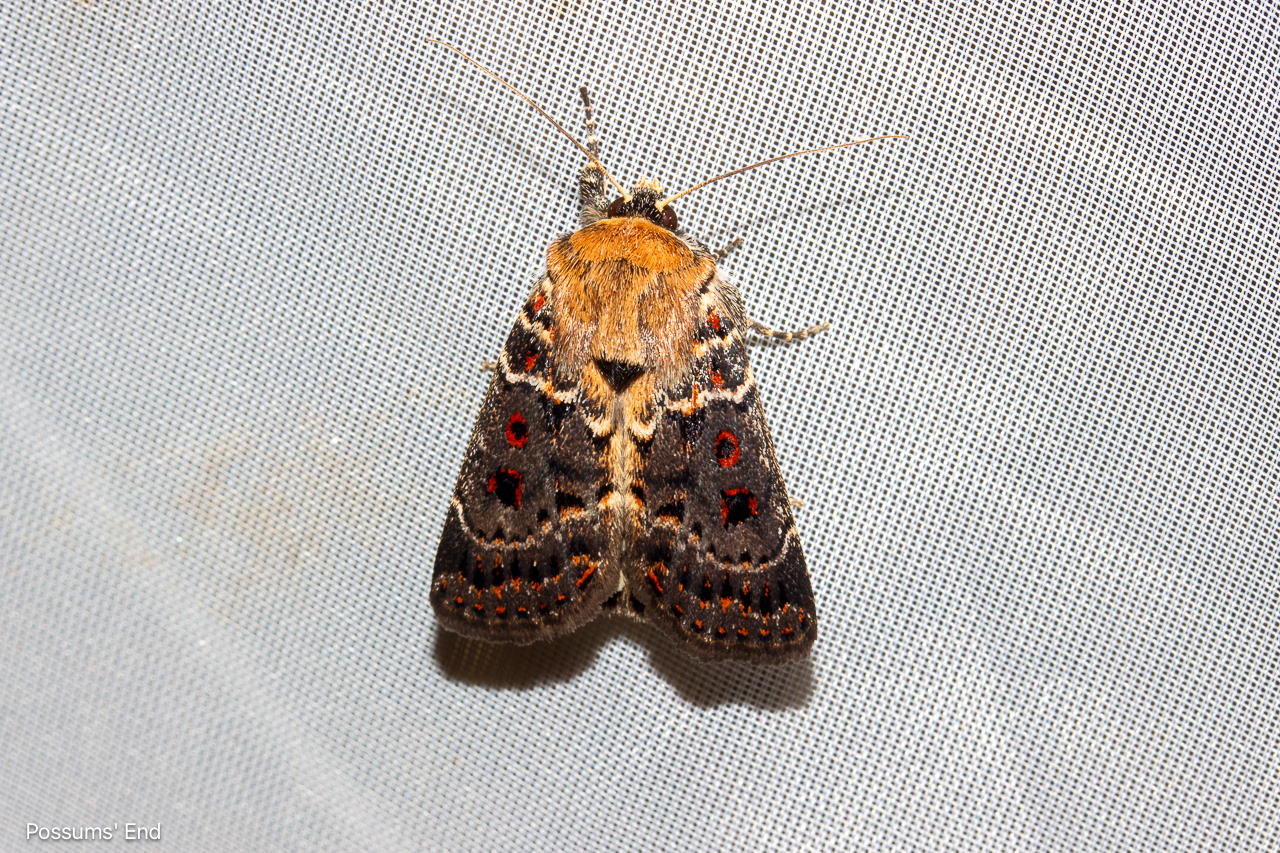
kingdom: Animalia
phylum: Arthropoda
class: Insecta
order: Lepidoptera
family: Noctuidae
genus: Proteuxoa
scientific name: Proteuxoa sanguinipuncta
